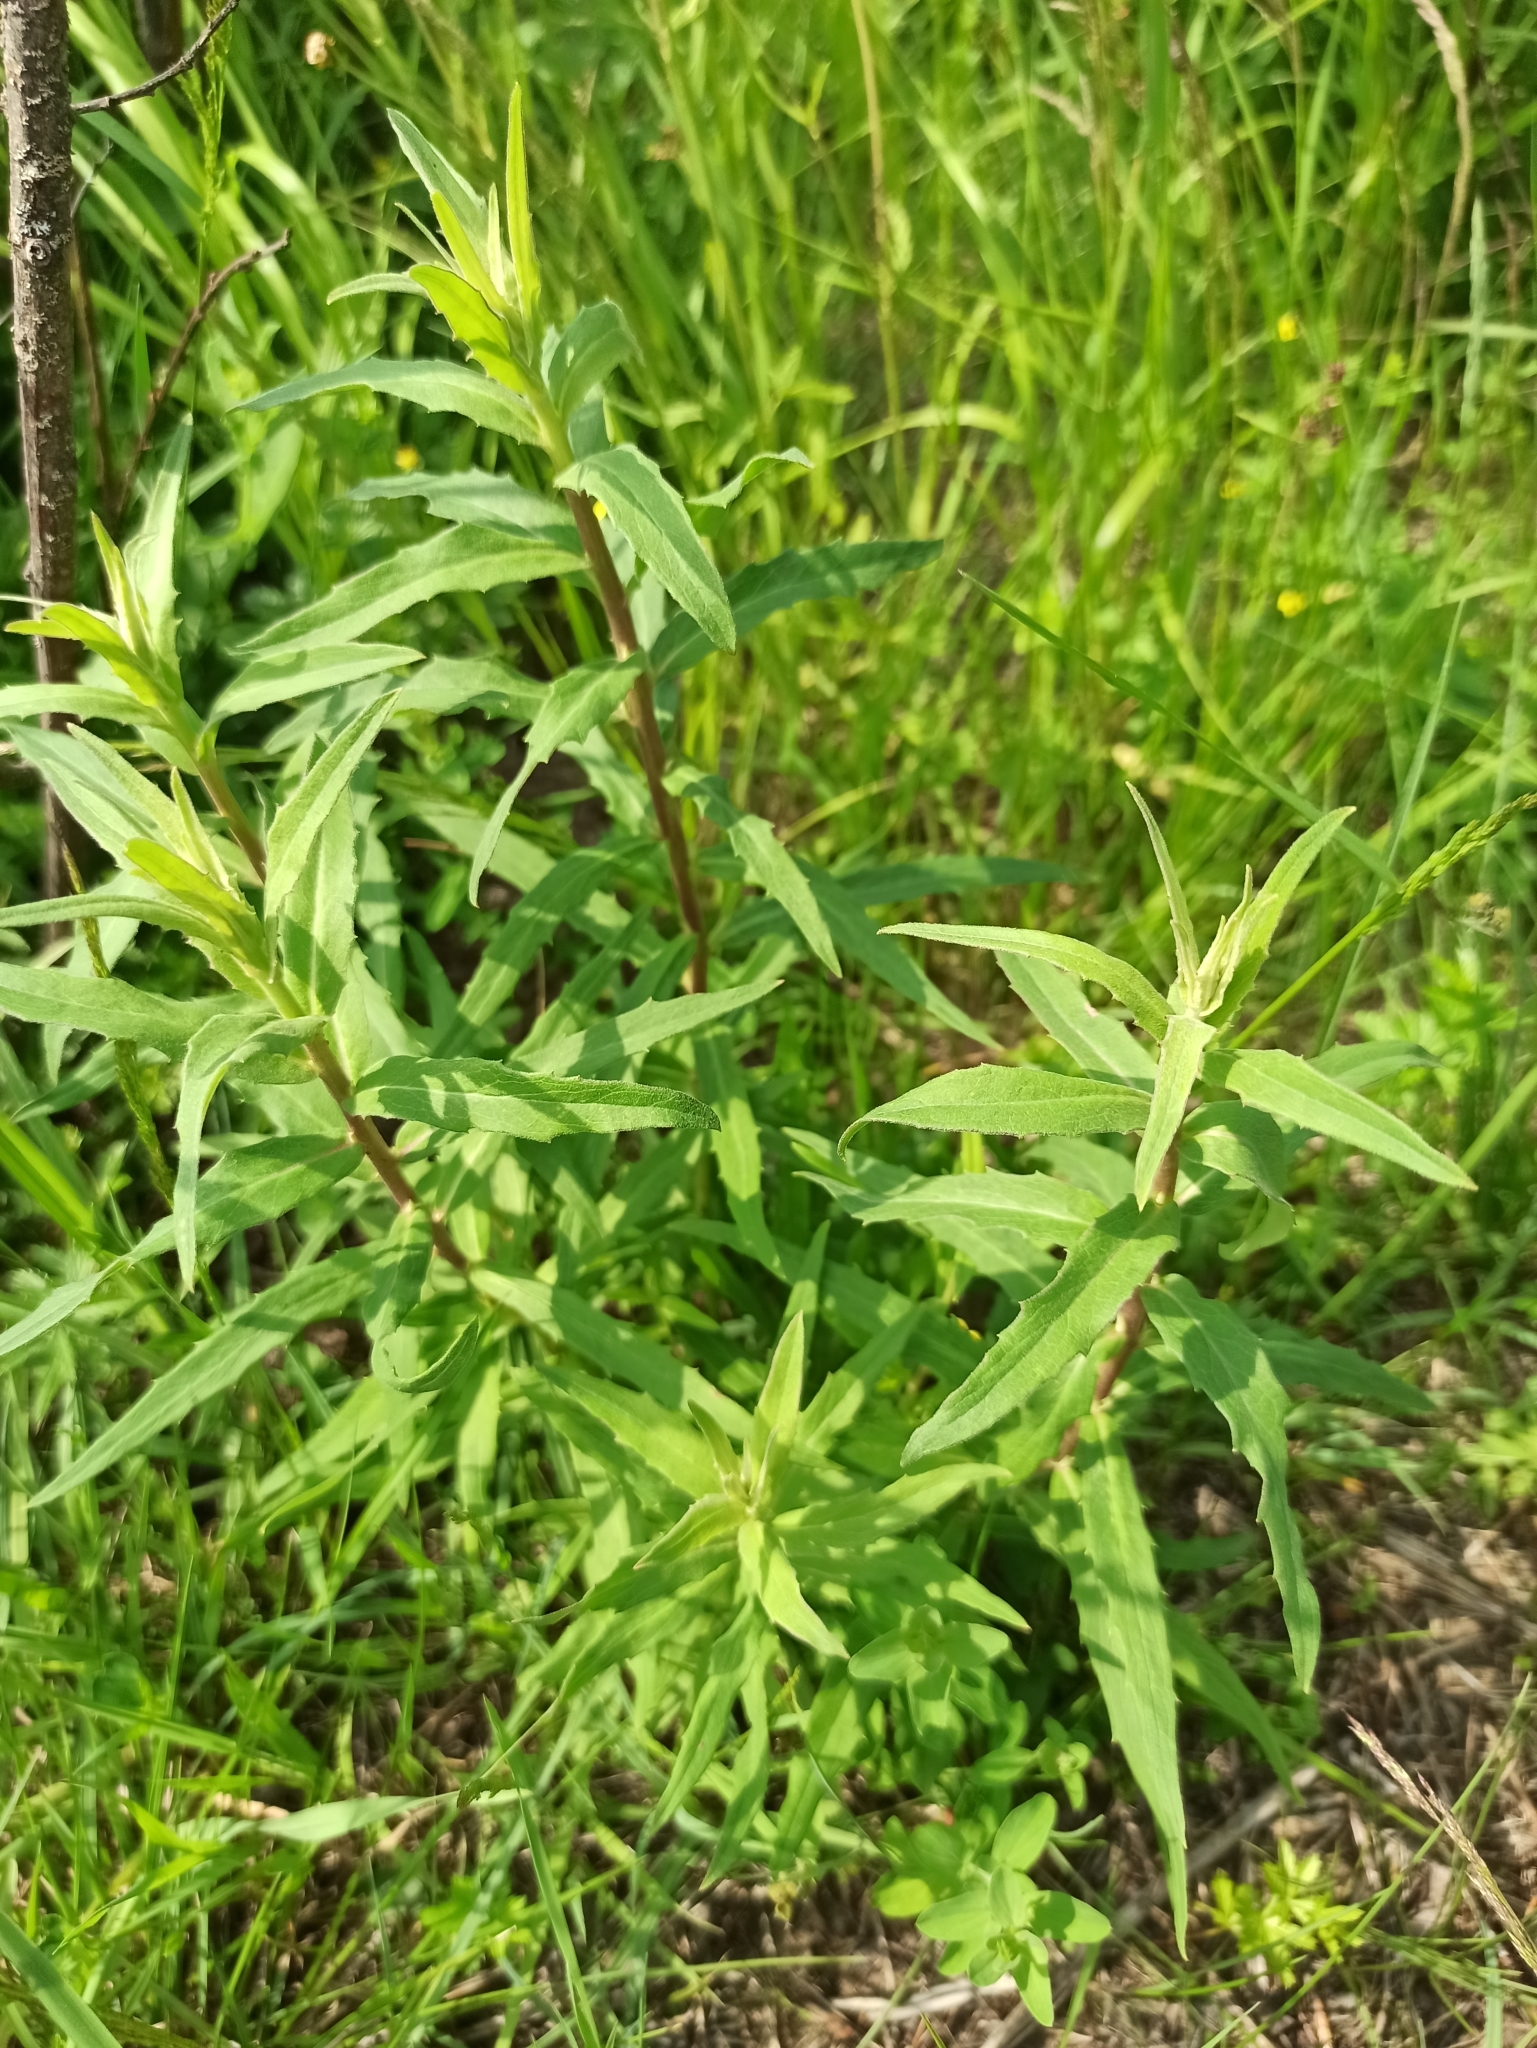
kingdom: Plantae
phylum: Tracheophyta
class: Magnoliopsida
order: Asterales
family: Asteraceae
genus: Hieracium
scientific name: Hieracium umbellatum
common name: Northern hawkweed
